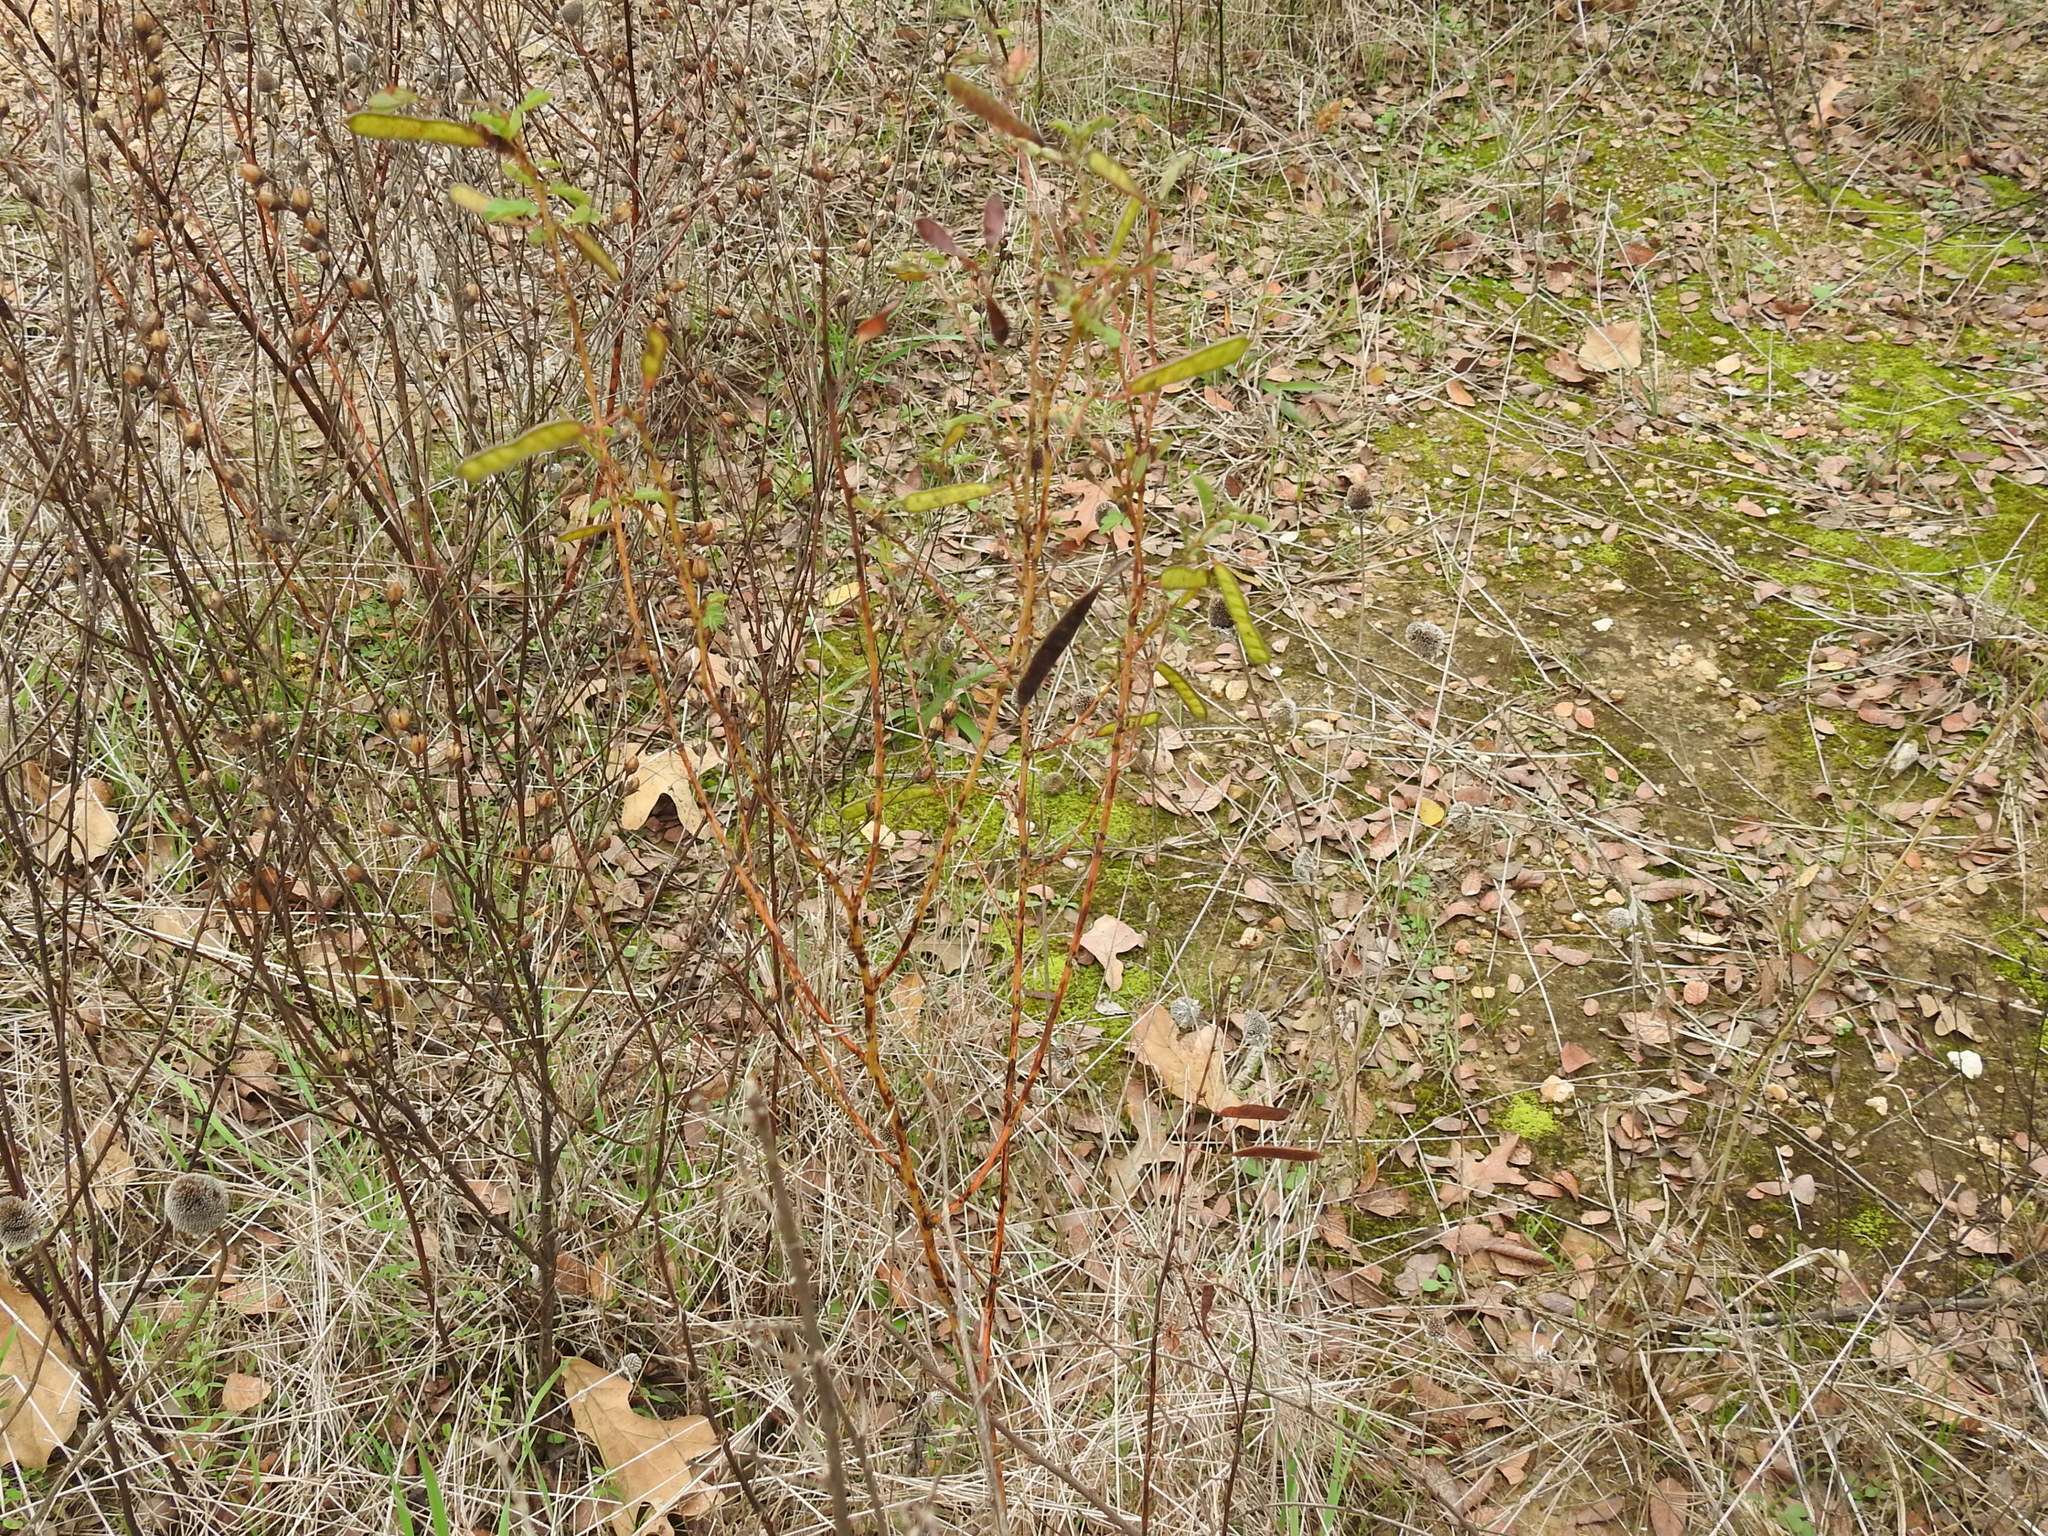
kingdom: Plantae
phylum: Tracheophyta
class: Magnoliopsida
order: Fabales
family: Fabaceae
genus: Chamaecrista
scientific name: Chamaecrista fasciculata
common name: Golden cassia
